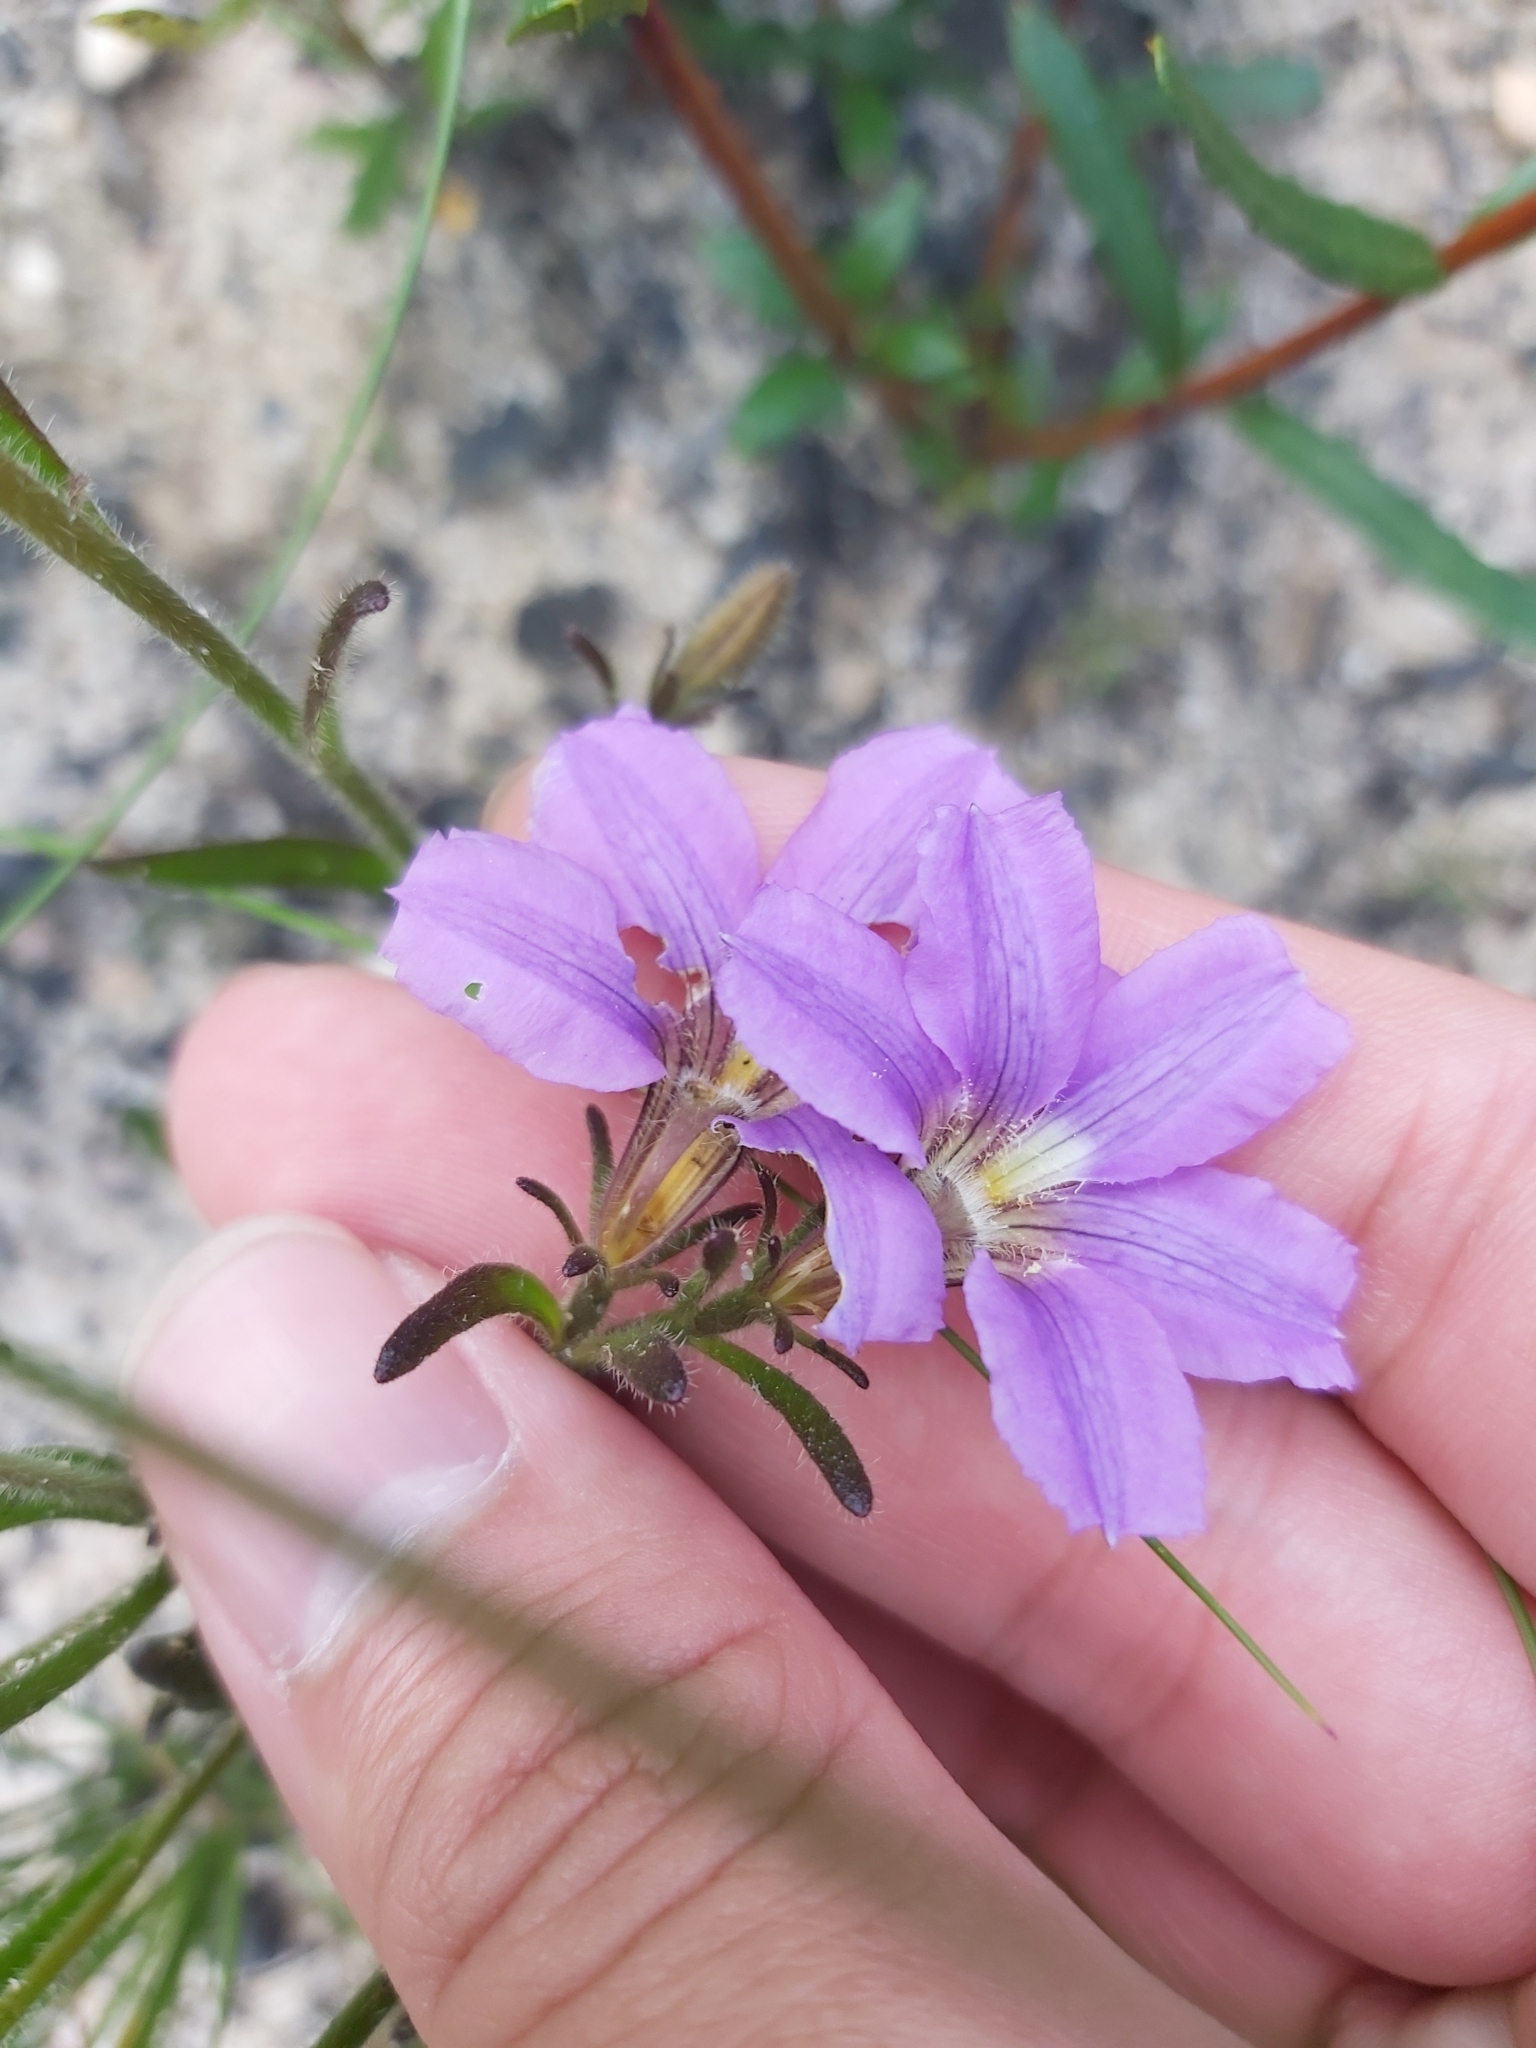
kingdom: Plantae
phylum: Tracheophyta
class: Magnoliopsida
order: Asterales
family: Goodeniaceae
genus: Scaevola
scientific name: Scaevola ramosissima
